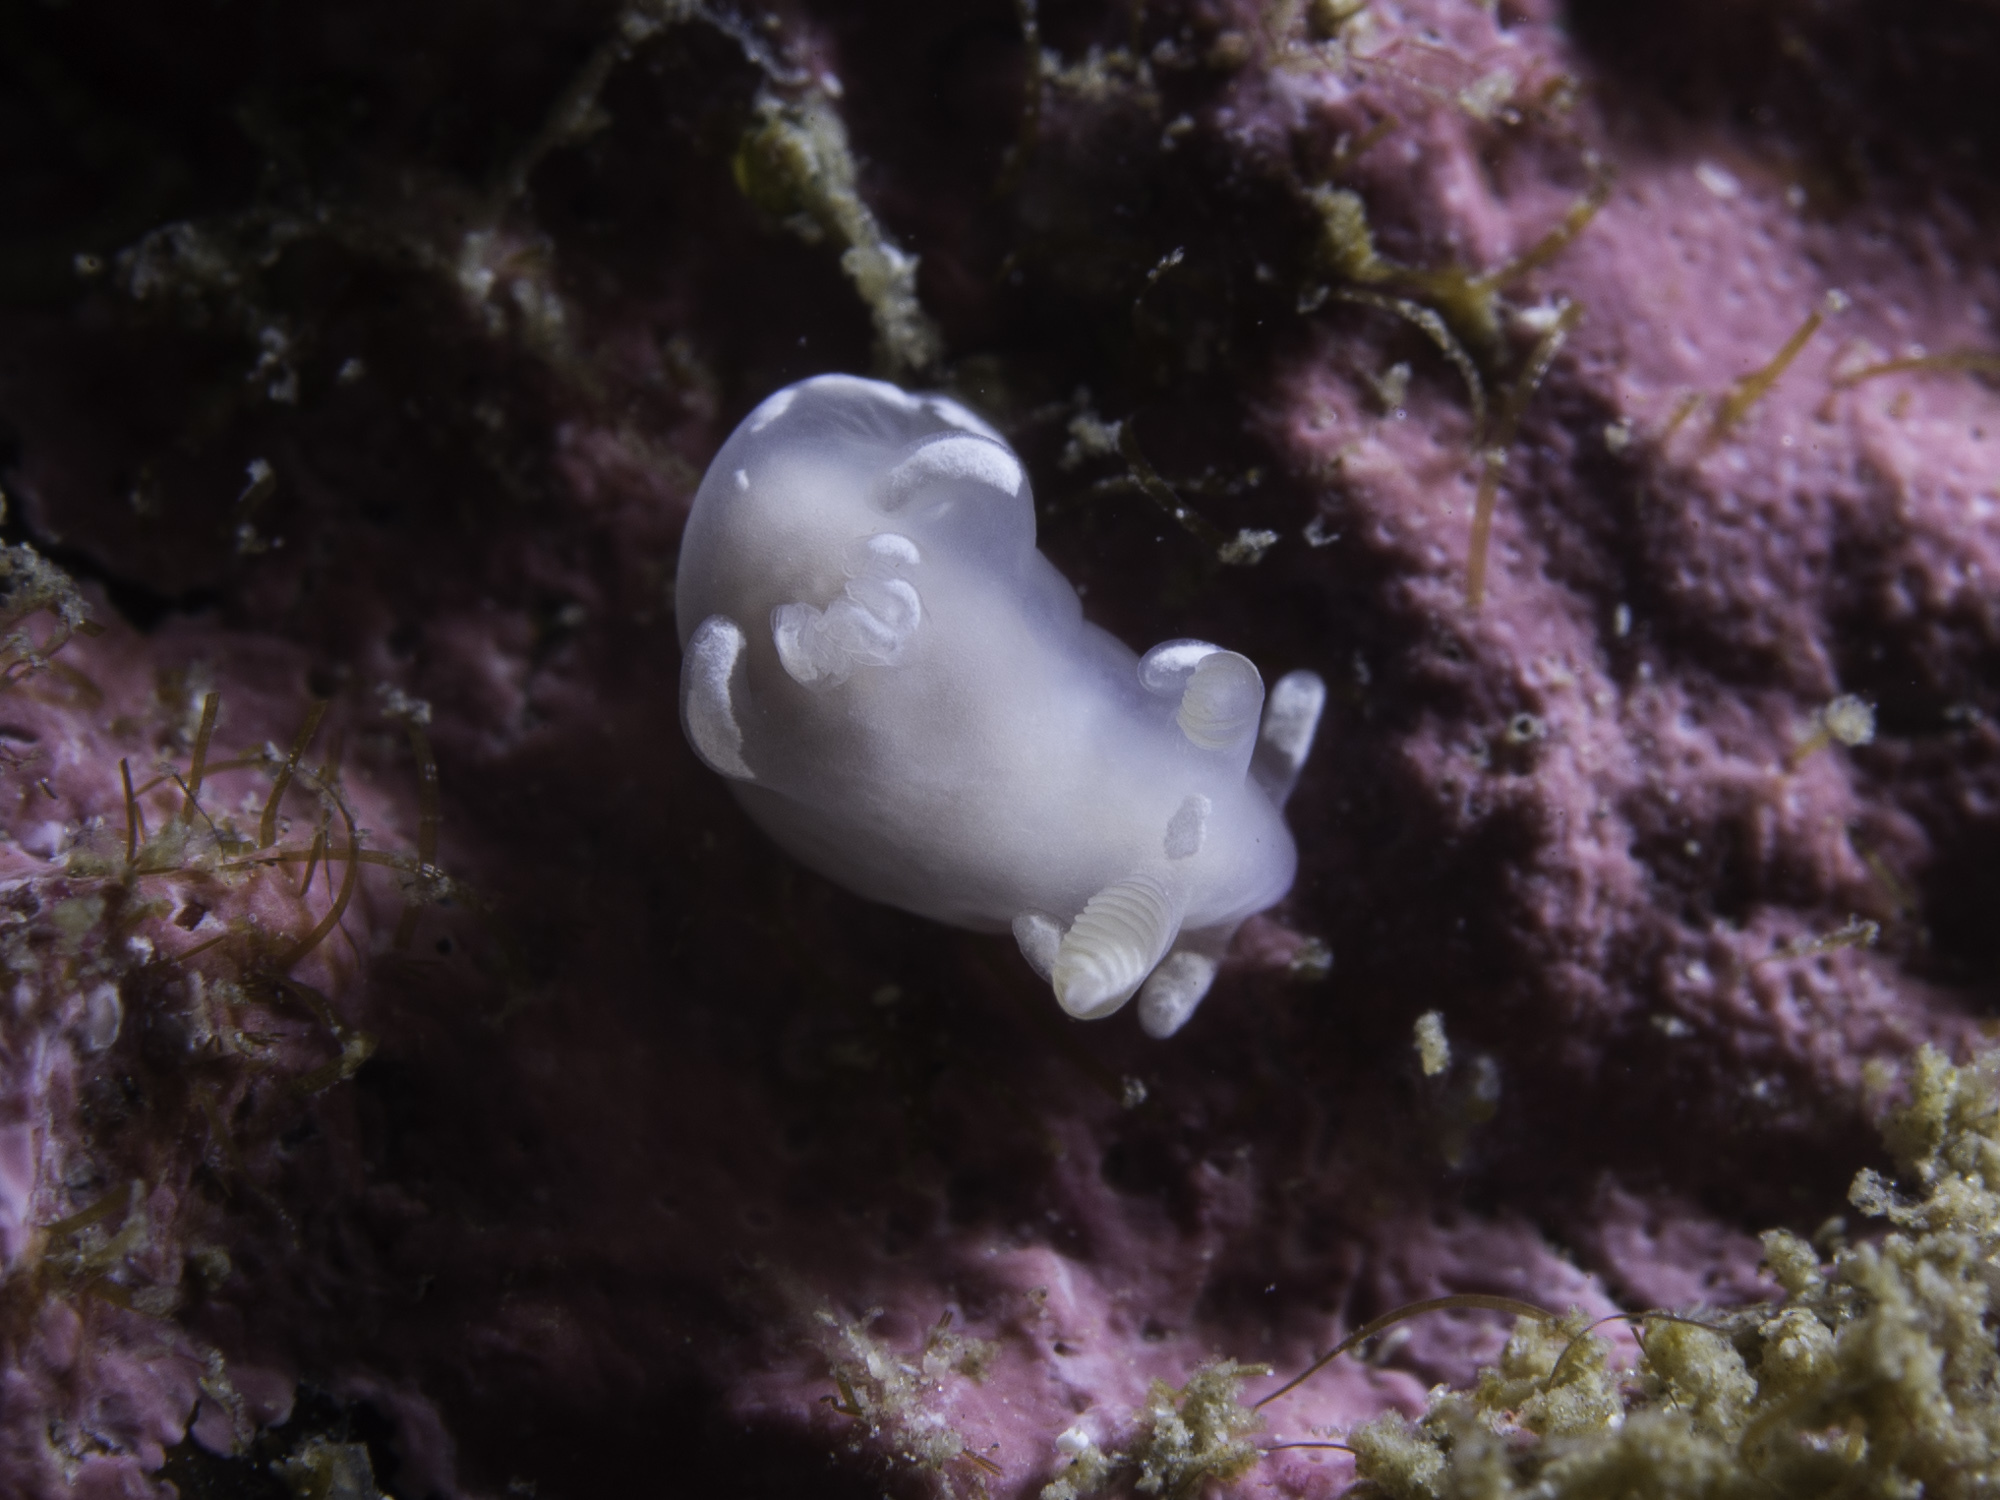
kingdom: Animalia
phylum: Mollusca
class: Gastropoda
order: Nudibranchia
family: Goniodorididae
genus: Trapania
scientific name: Trapania lineata
